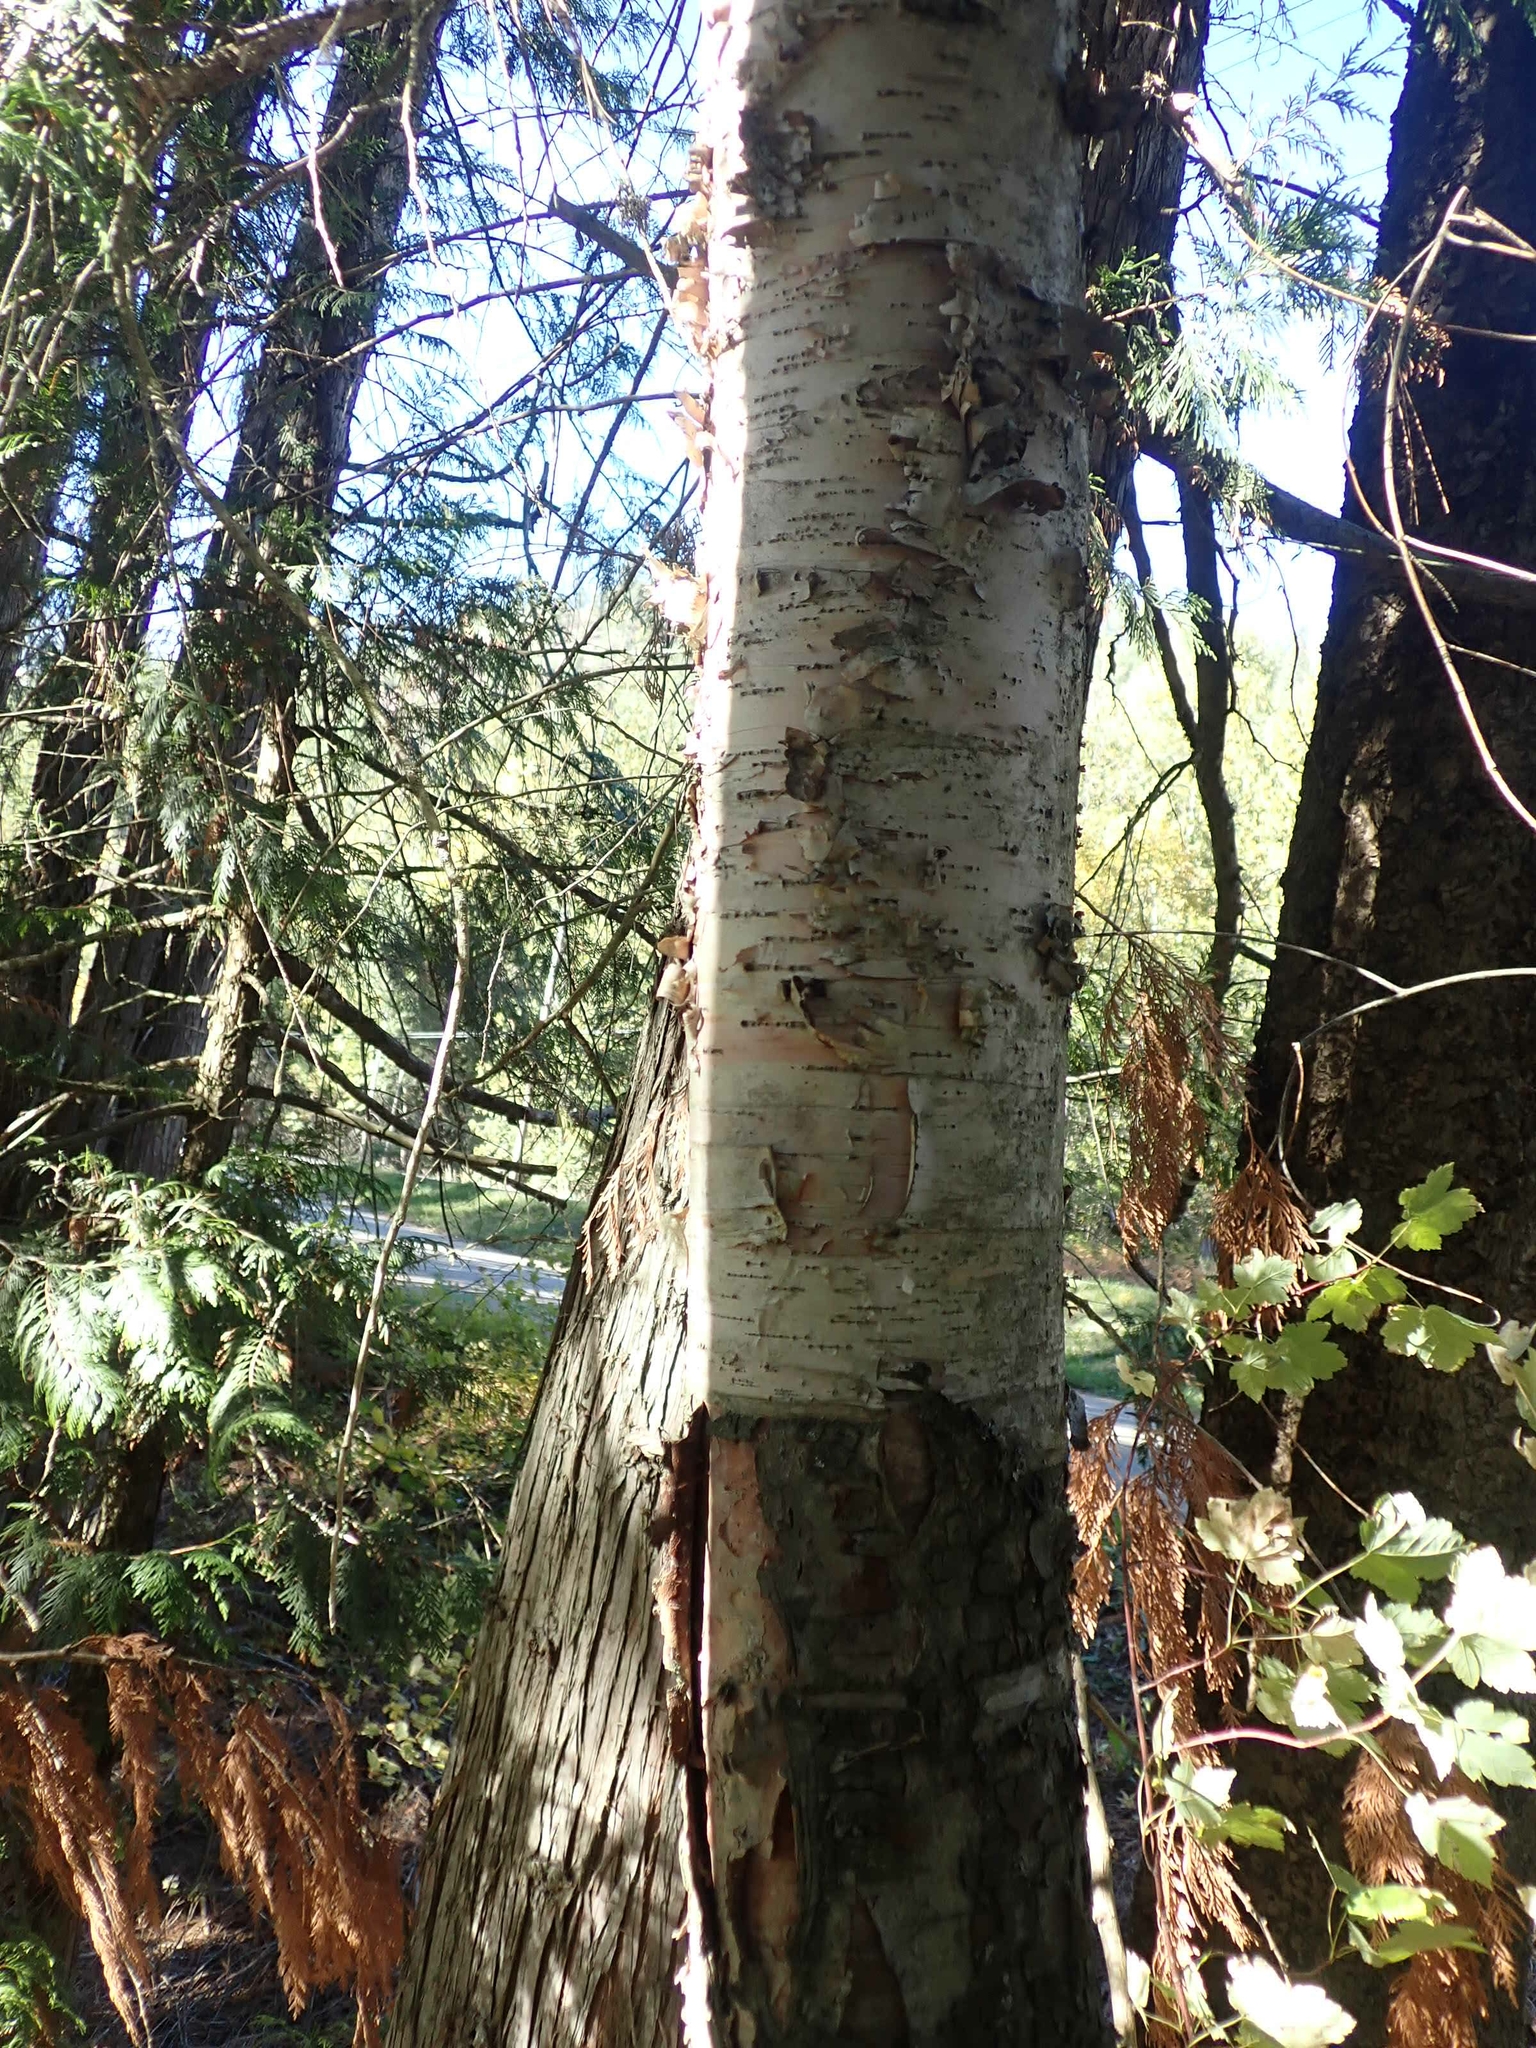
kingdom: Plantae
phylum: Tracheophyta
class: Magnoliopsida
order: Fagales
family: Betulaceae
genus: Betula
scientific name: Betula papyrifera
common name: Paper birch
